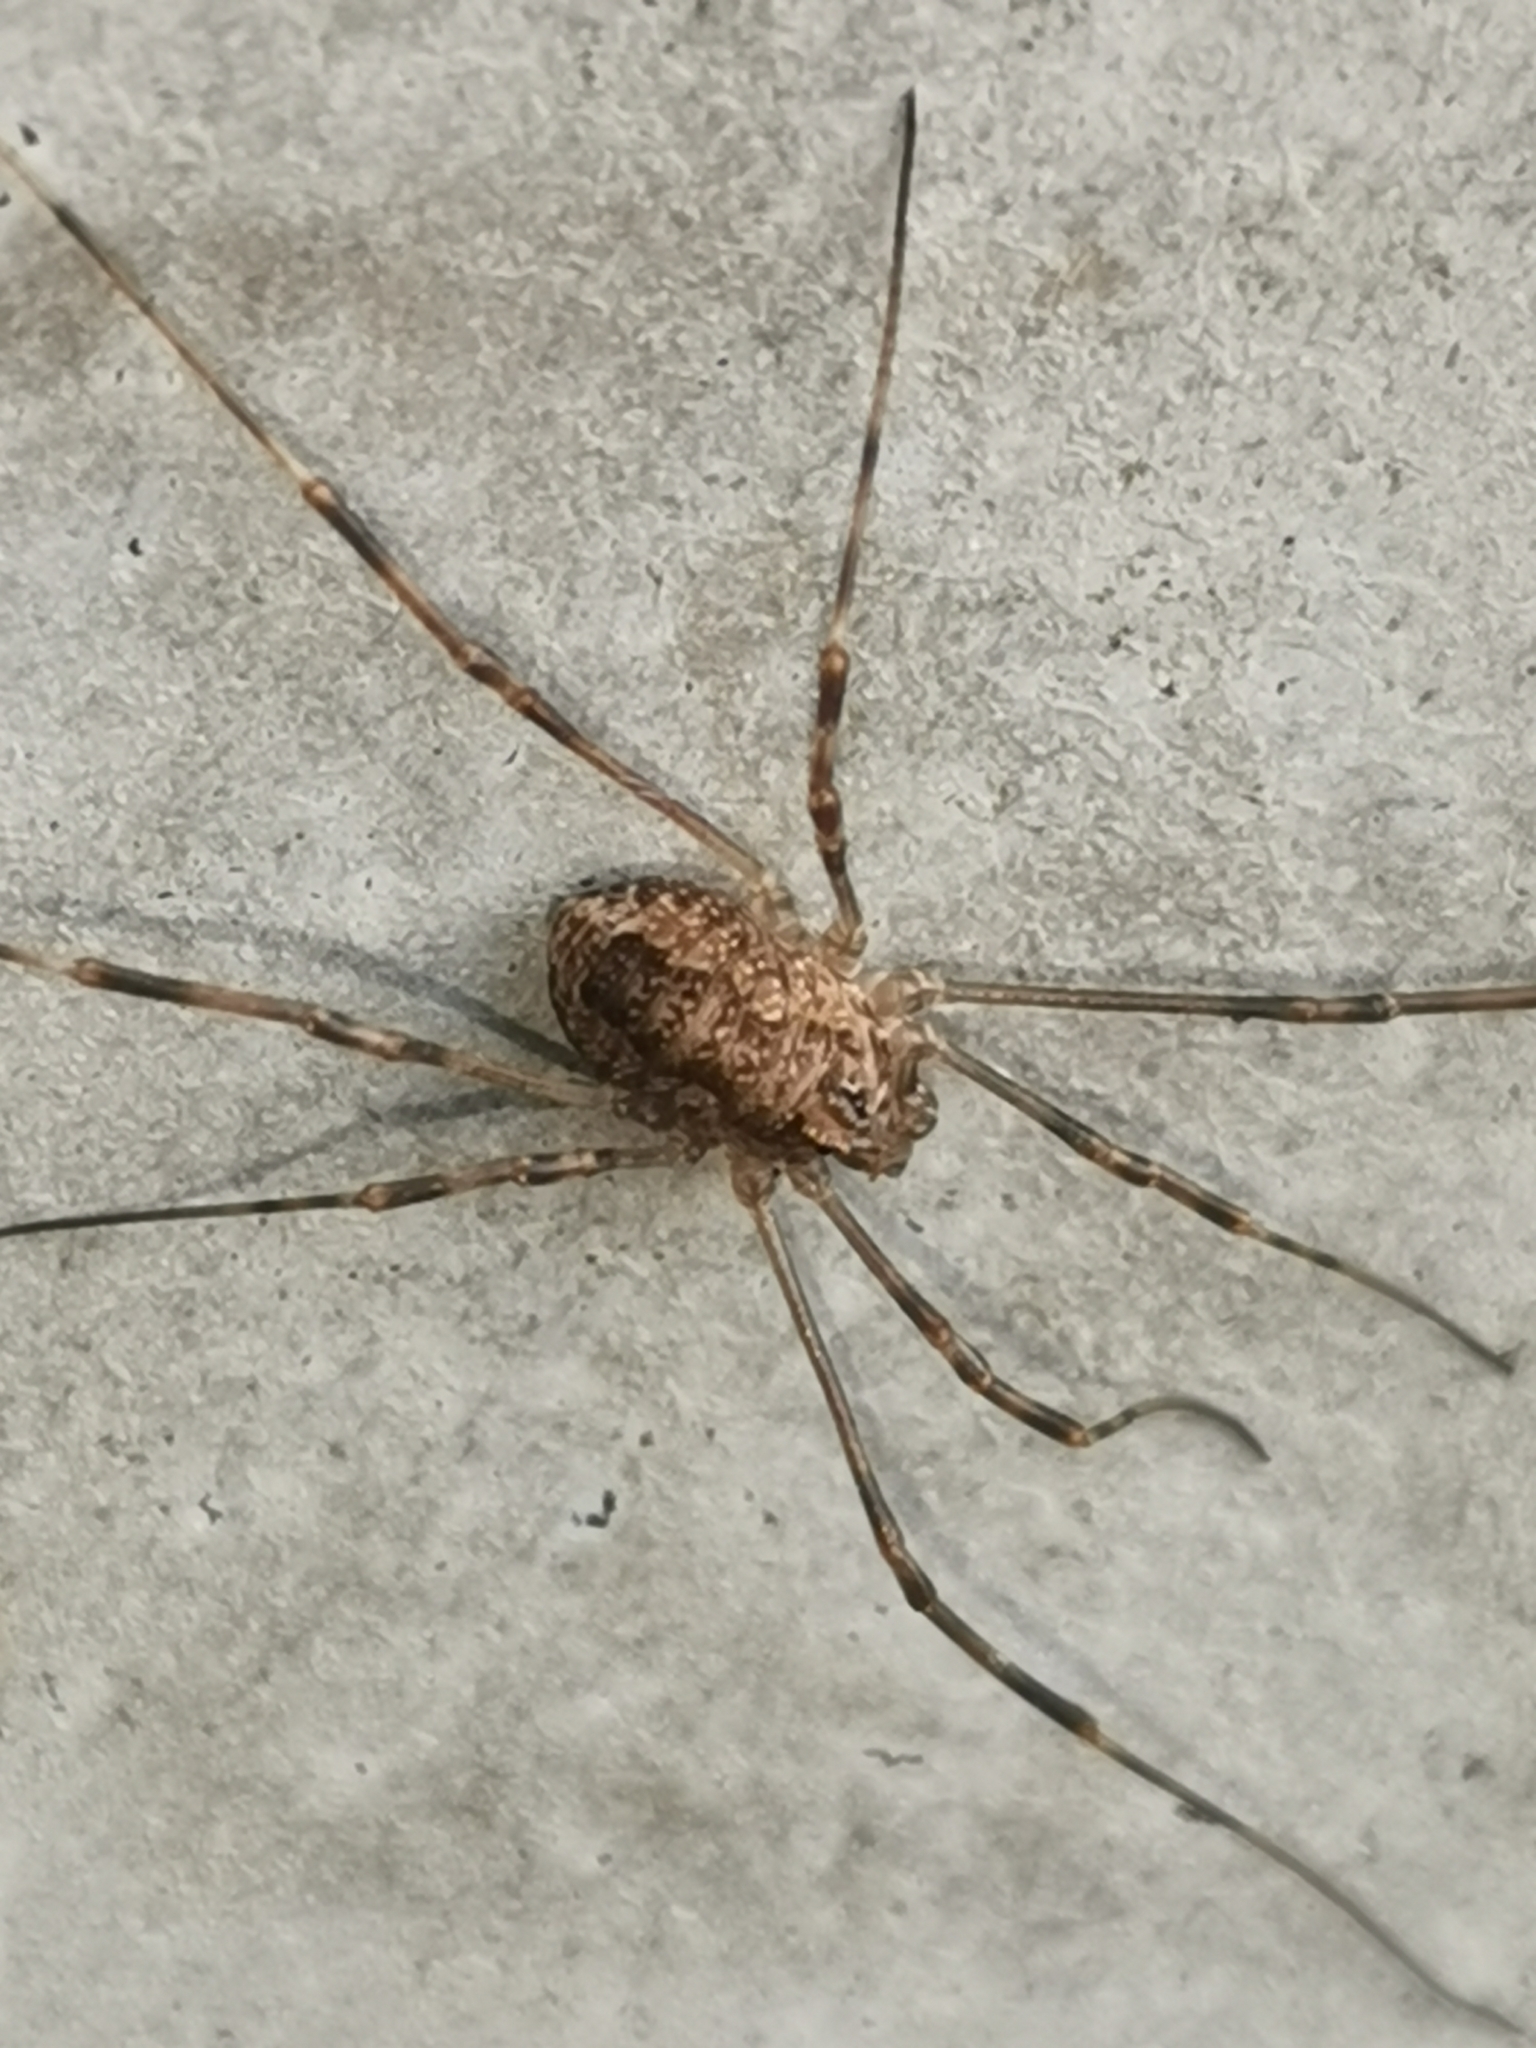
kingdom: Animalia
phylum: Arthropoda
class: Arachnida
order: Opiliones
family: Phalangiidae
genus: Rilaena
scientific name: Rilaena triangularis
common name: Spring harvestman
